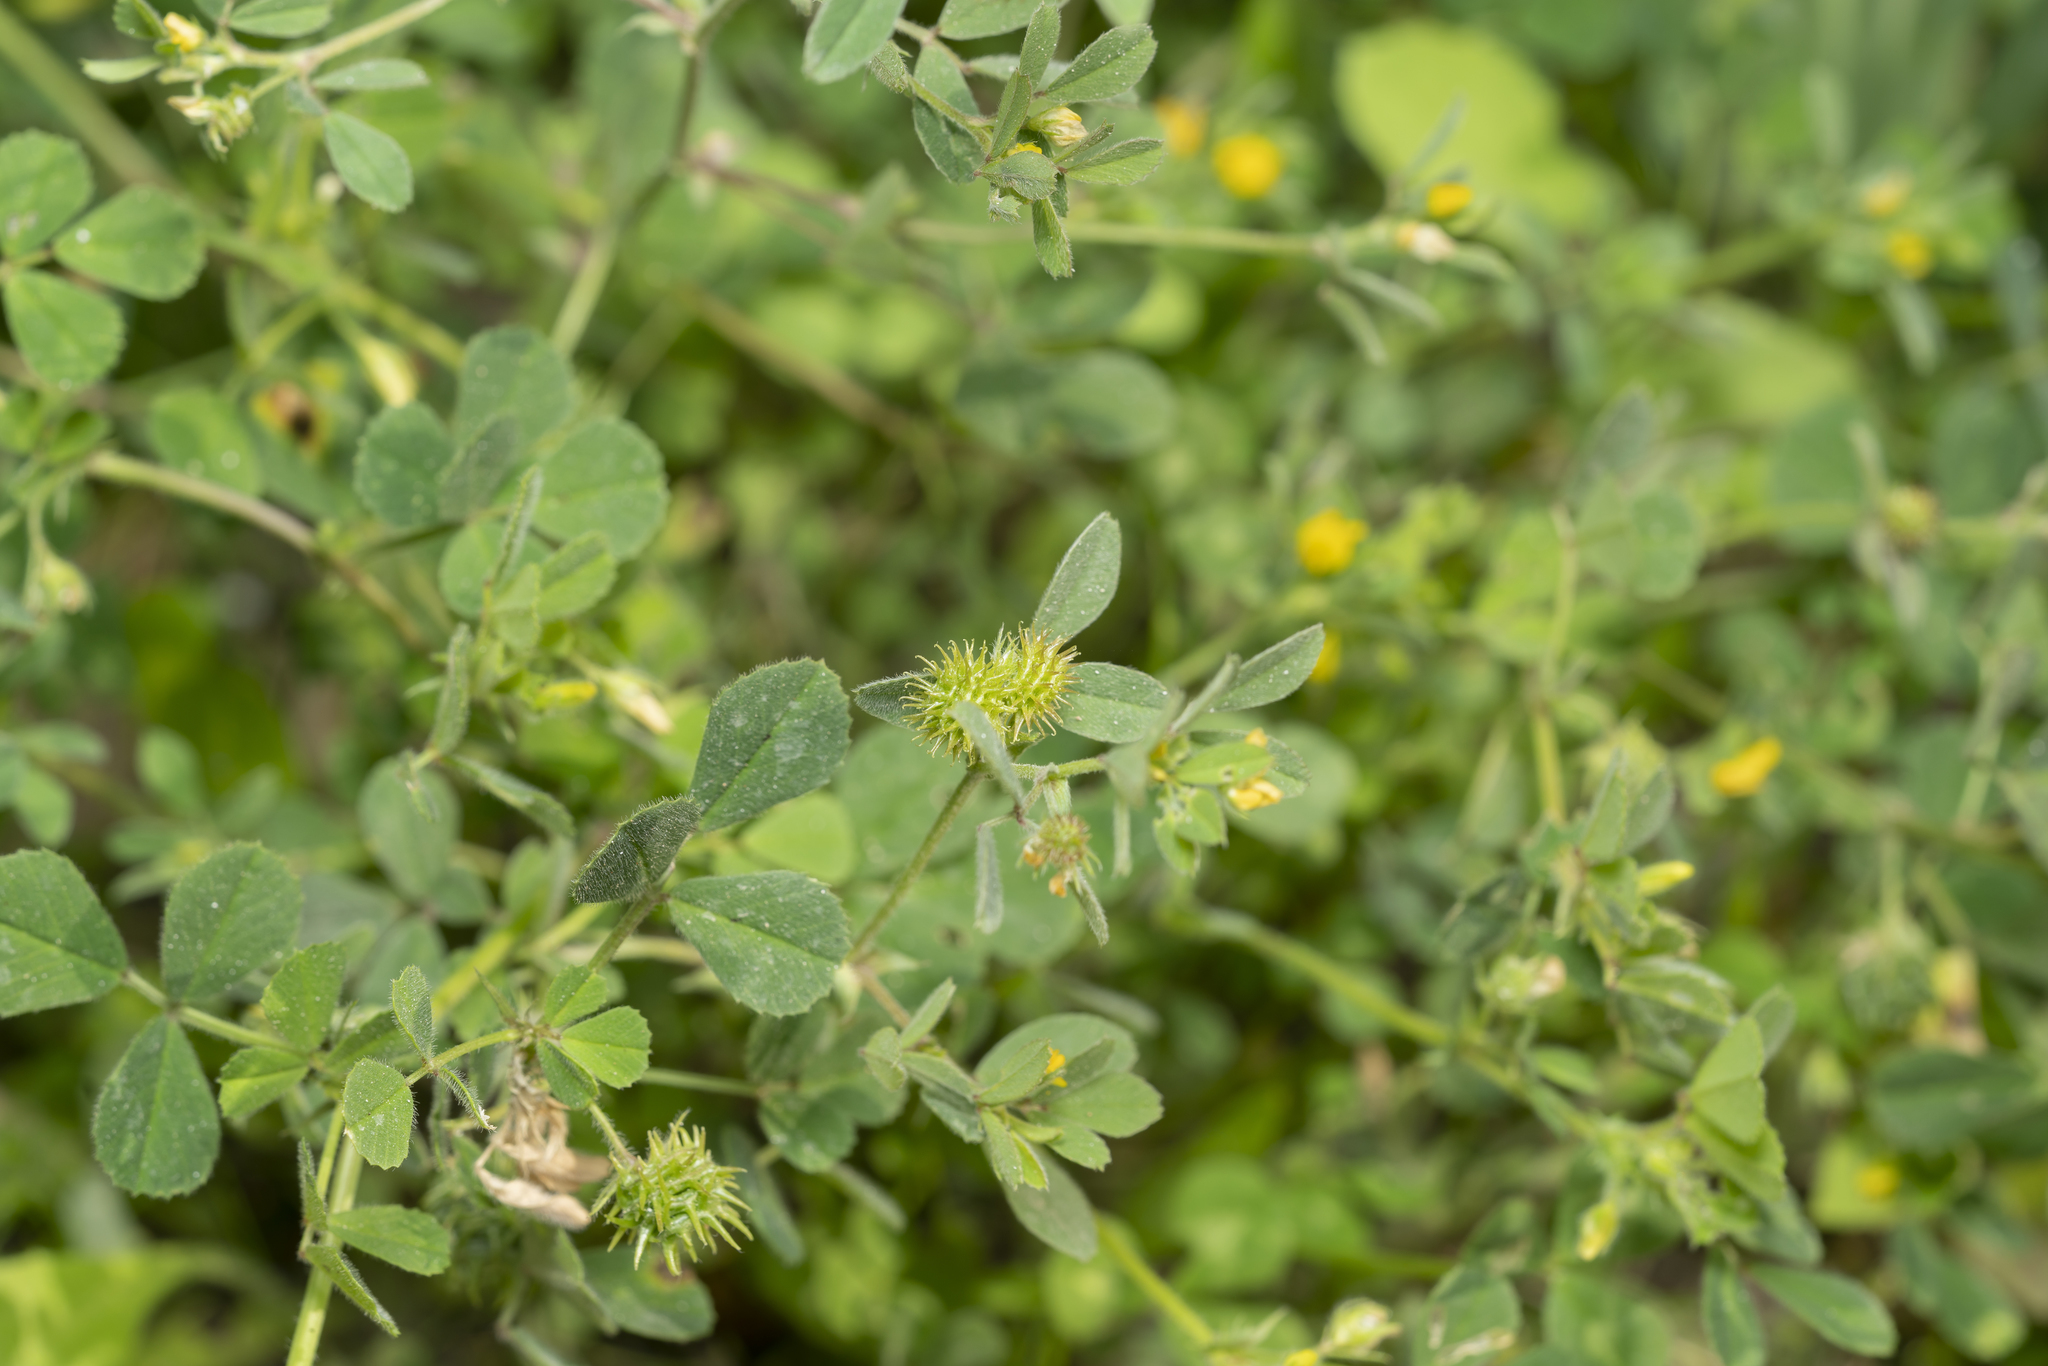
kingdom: Plantae
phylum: Tracheophyta
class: Magnoliopsida
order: Fabales
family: Fabaceae
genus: Medicago
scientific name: Medicago minima
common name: Little bur-clover
